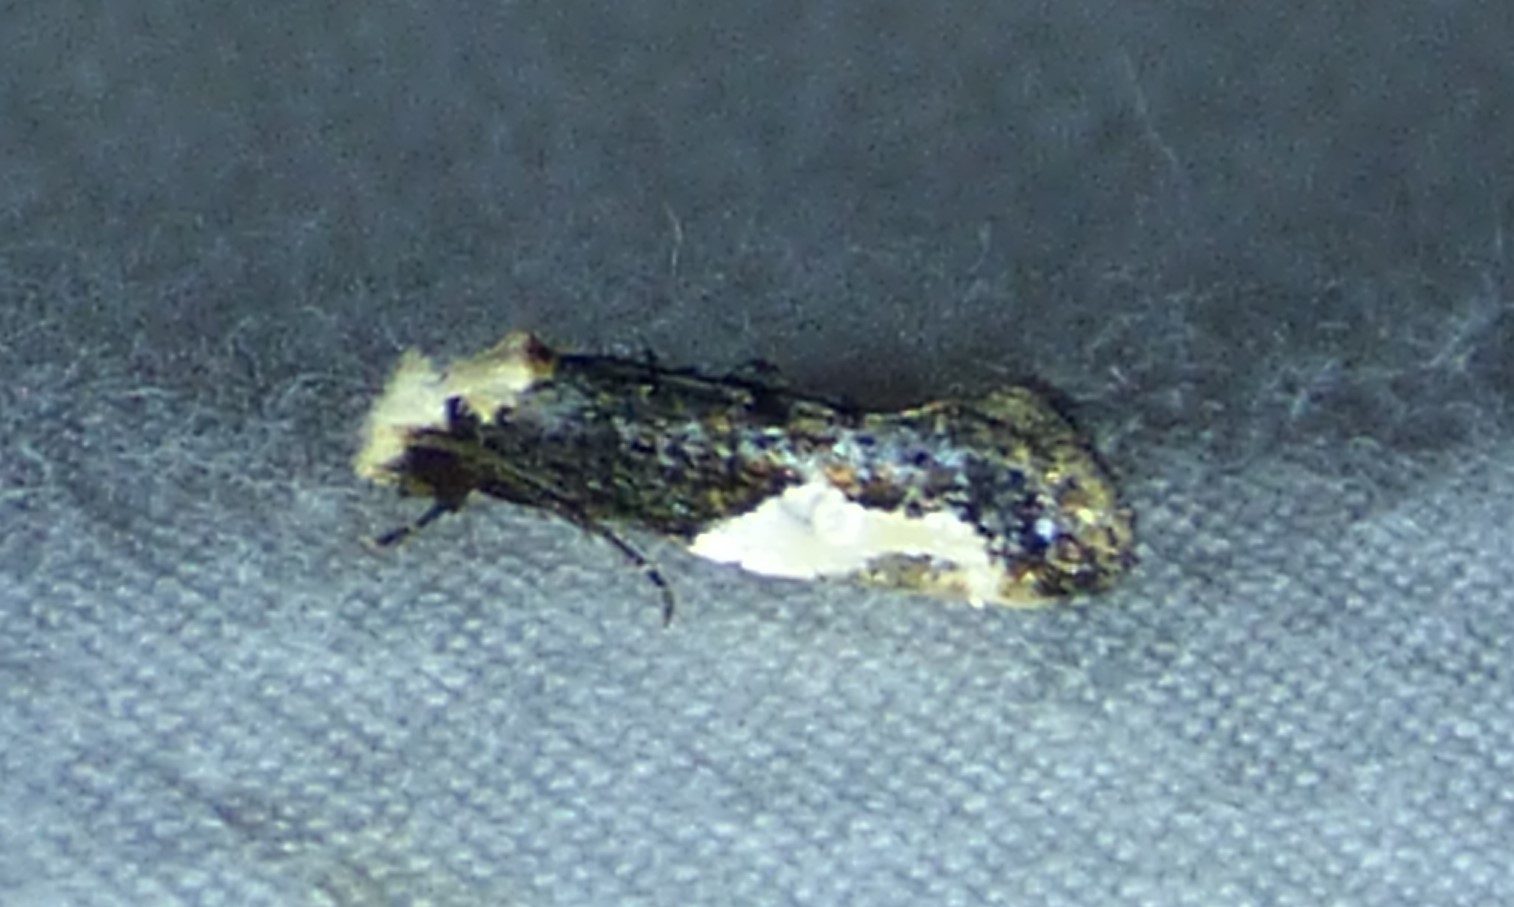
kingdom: Animalia
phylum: Arthropoda
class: Insecta
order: Lepidoptera
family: Tineidae
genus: Monopis
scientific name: Monopis longella
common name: Pavlovski's monopis moth
